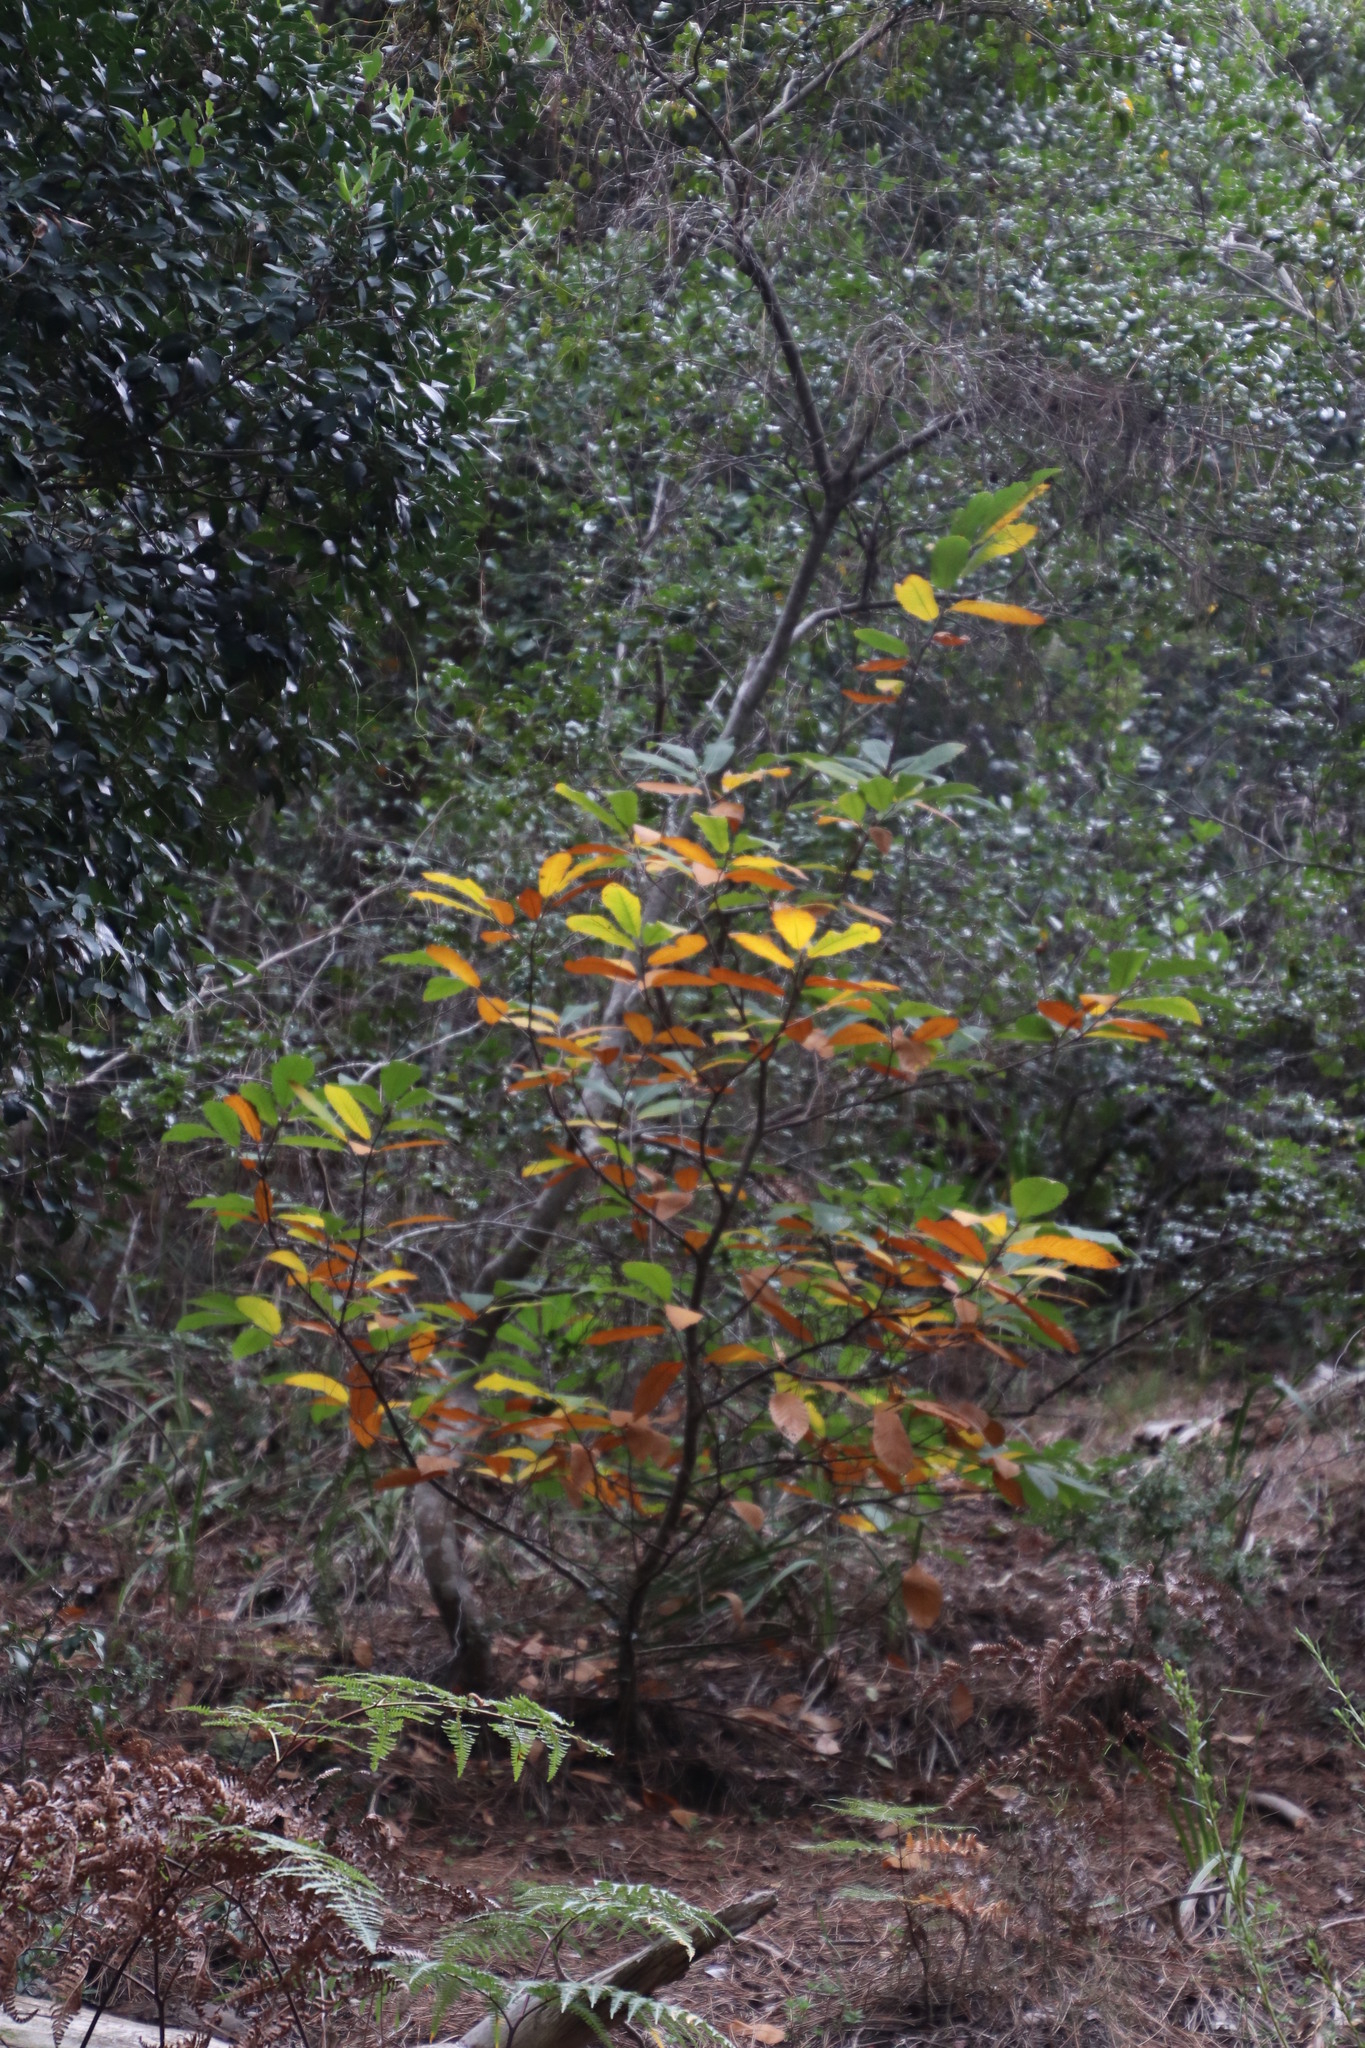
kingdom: Plantae
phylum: Tracheophyta
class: Magnoliopsida
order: Fagales
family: Fagaceae
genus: Castanea
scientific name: Castanea sativa
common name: Sweet chestnut
